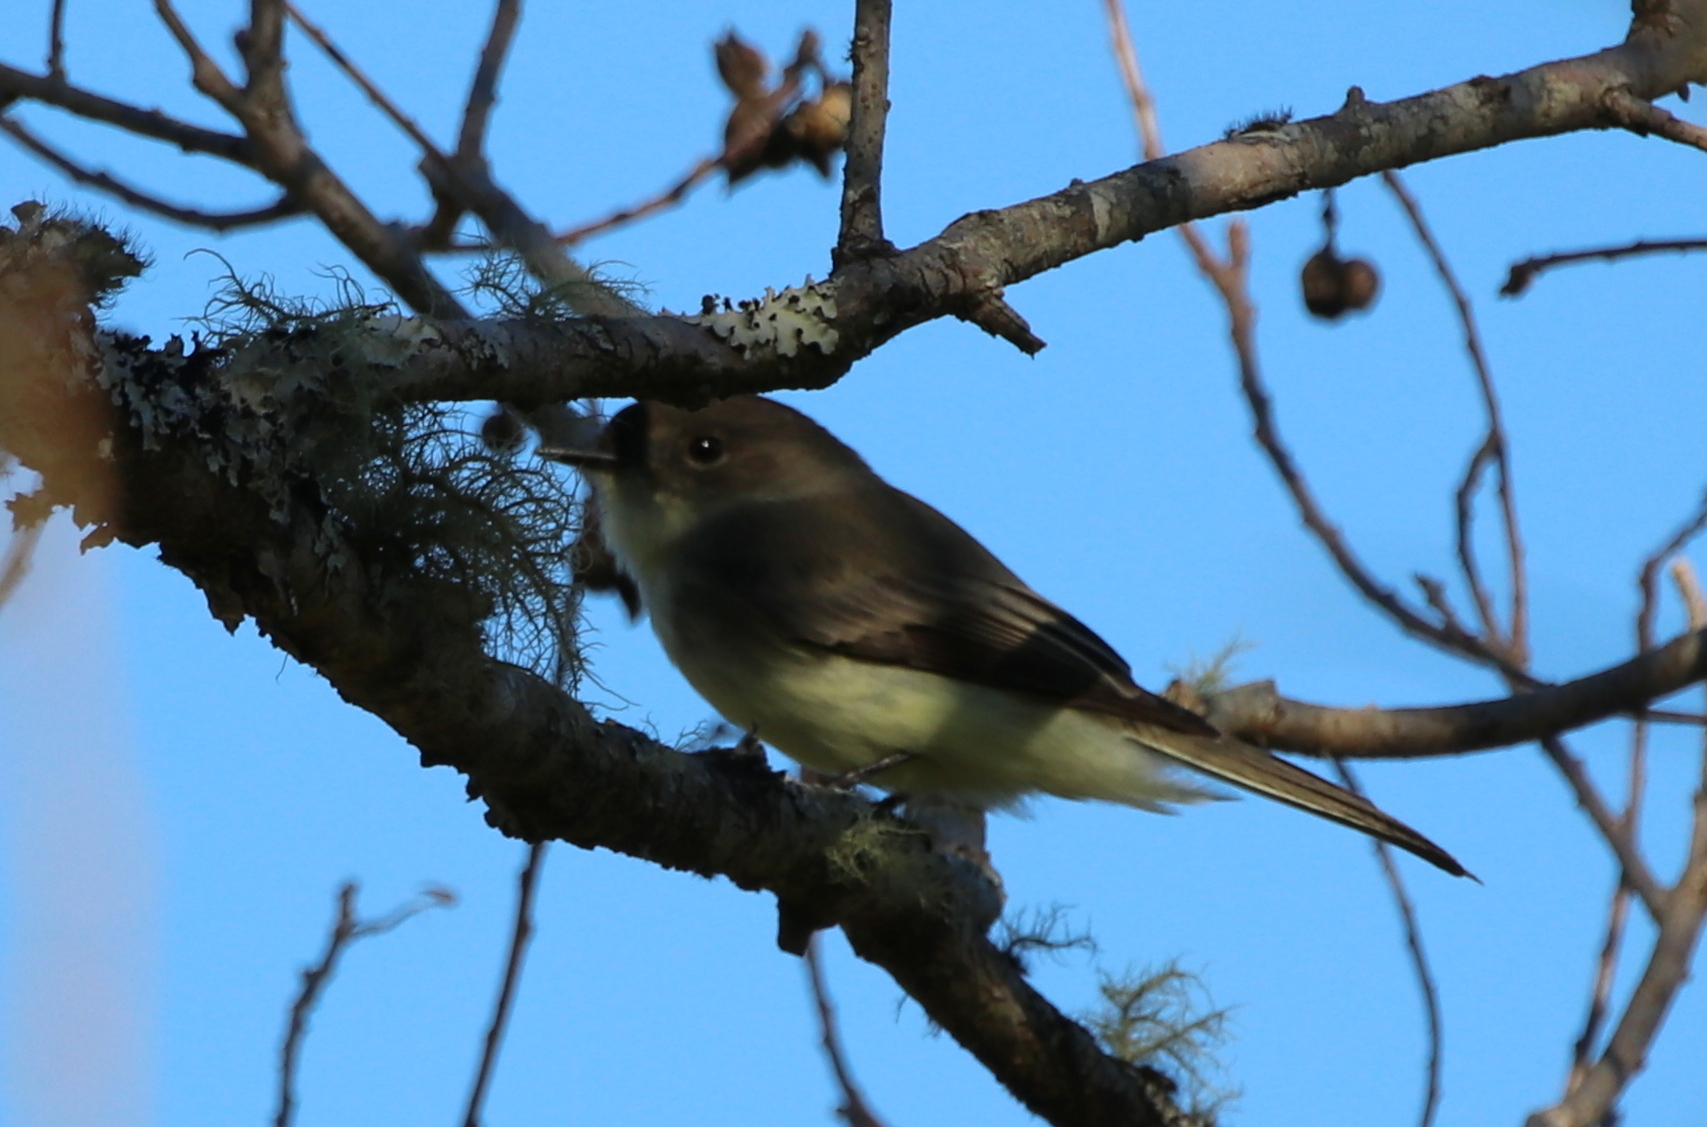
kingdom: Animalia
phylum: Chordata
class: Aves
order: Passeriformes
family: Tyrannidae
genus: Sayornis
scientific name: Sayornis phoebe
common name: Eastern phoebe
